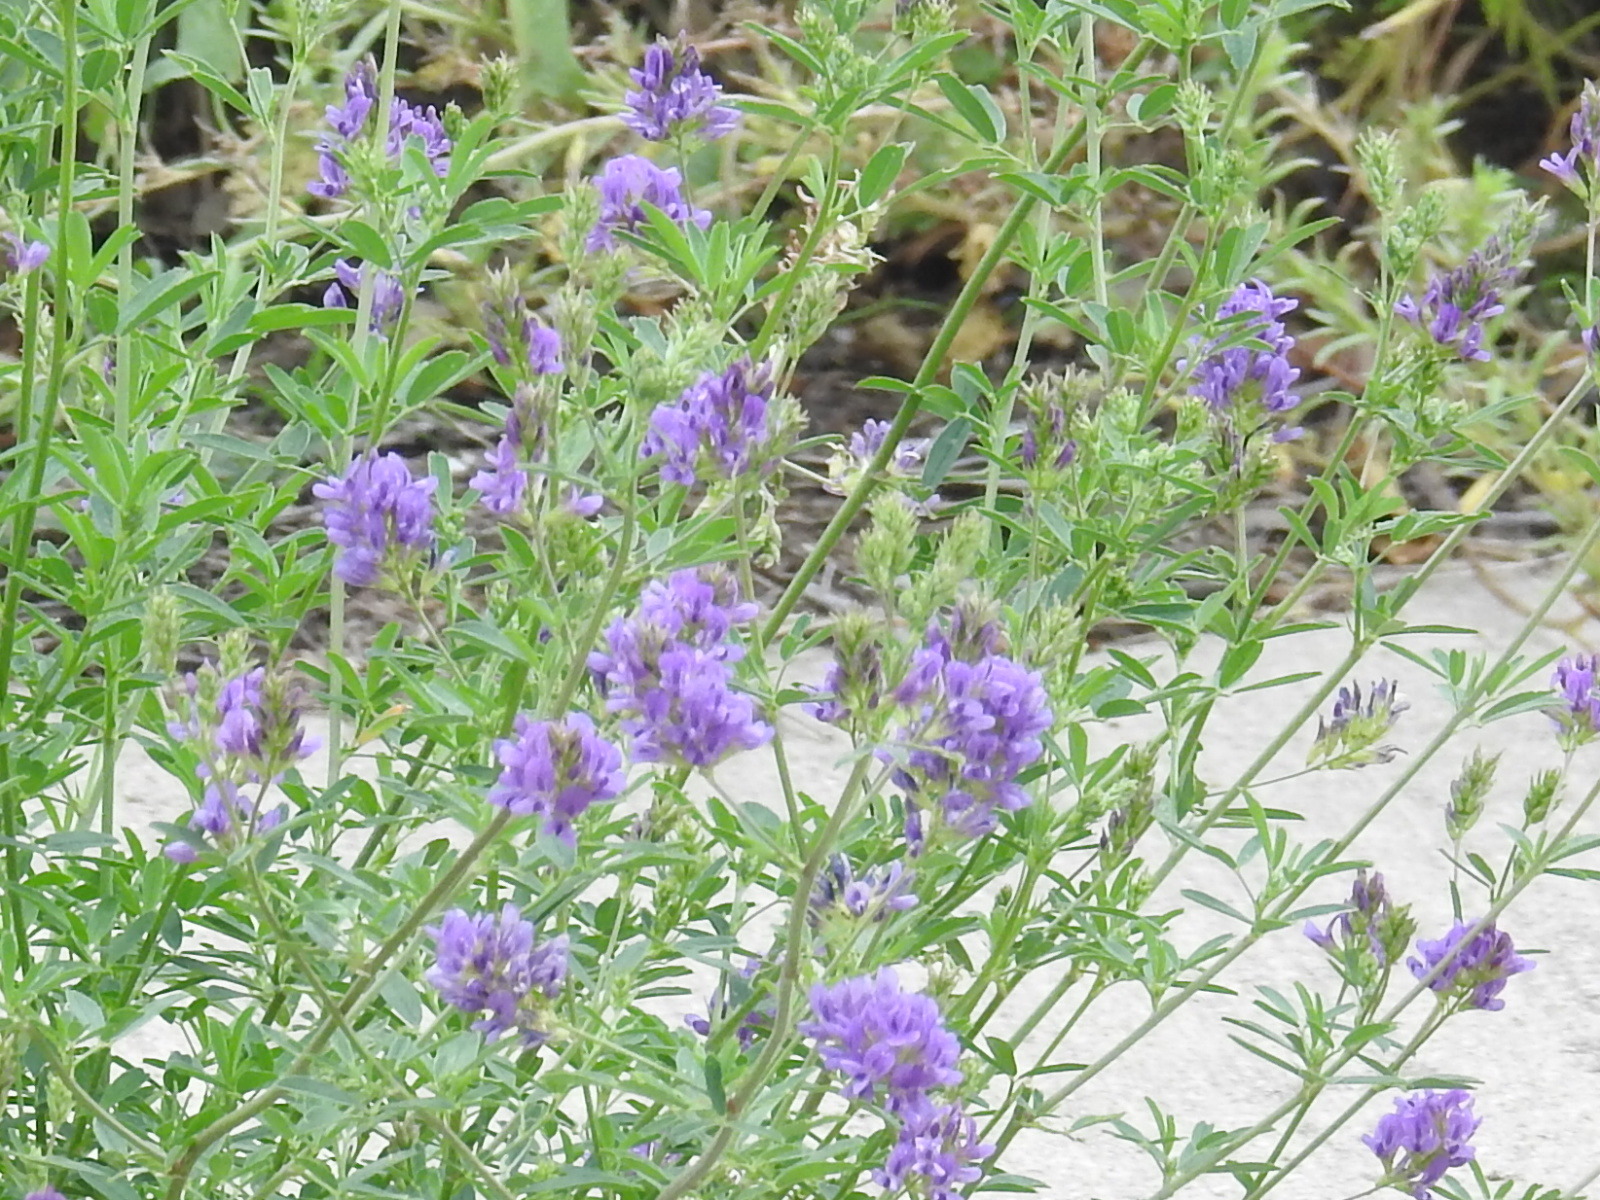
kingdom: Plantae
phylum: Tracheophyta
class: Magnoliopsida
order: Fabales
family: Fabaceae
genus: Medicago
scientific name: Medicago sativa
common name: Alfalfa
